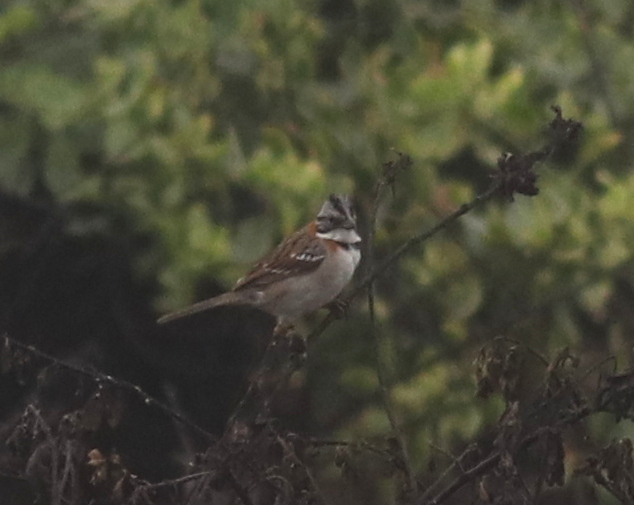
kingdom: Animalia
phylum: Chordata
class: Aves
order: Passeriformes
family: Passerellidae
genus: Zonotrichia
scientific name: Zonotrichia capensis
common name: Rufous-collared sparrow
